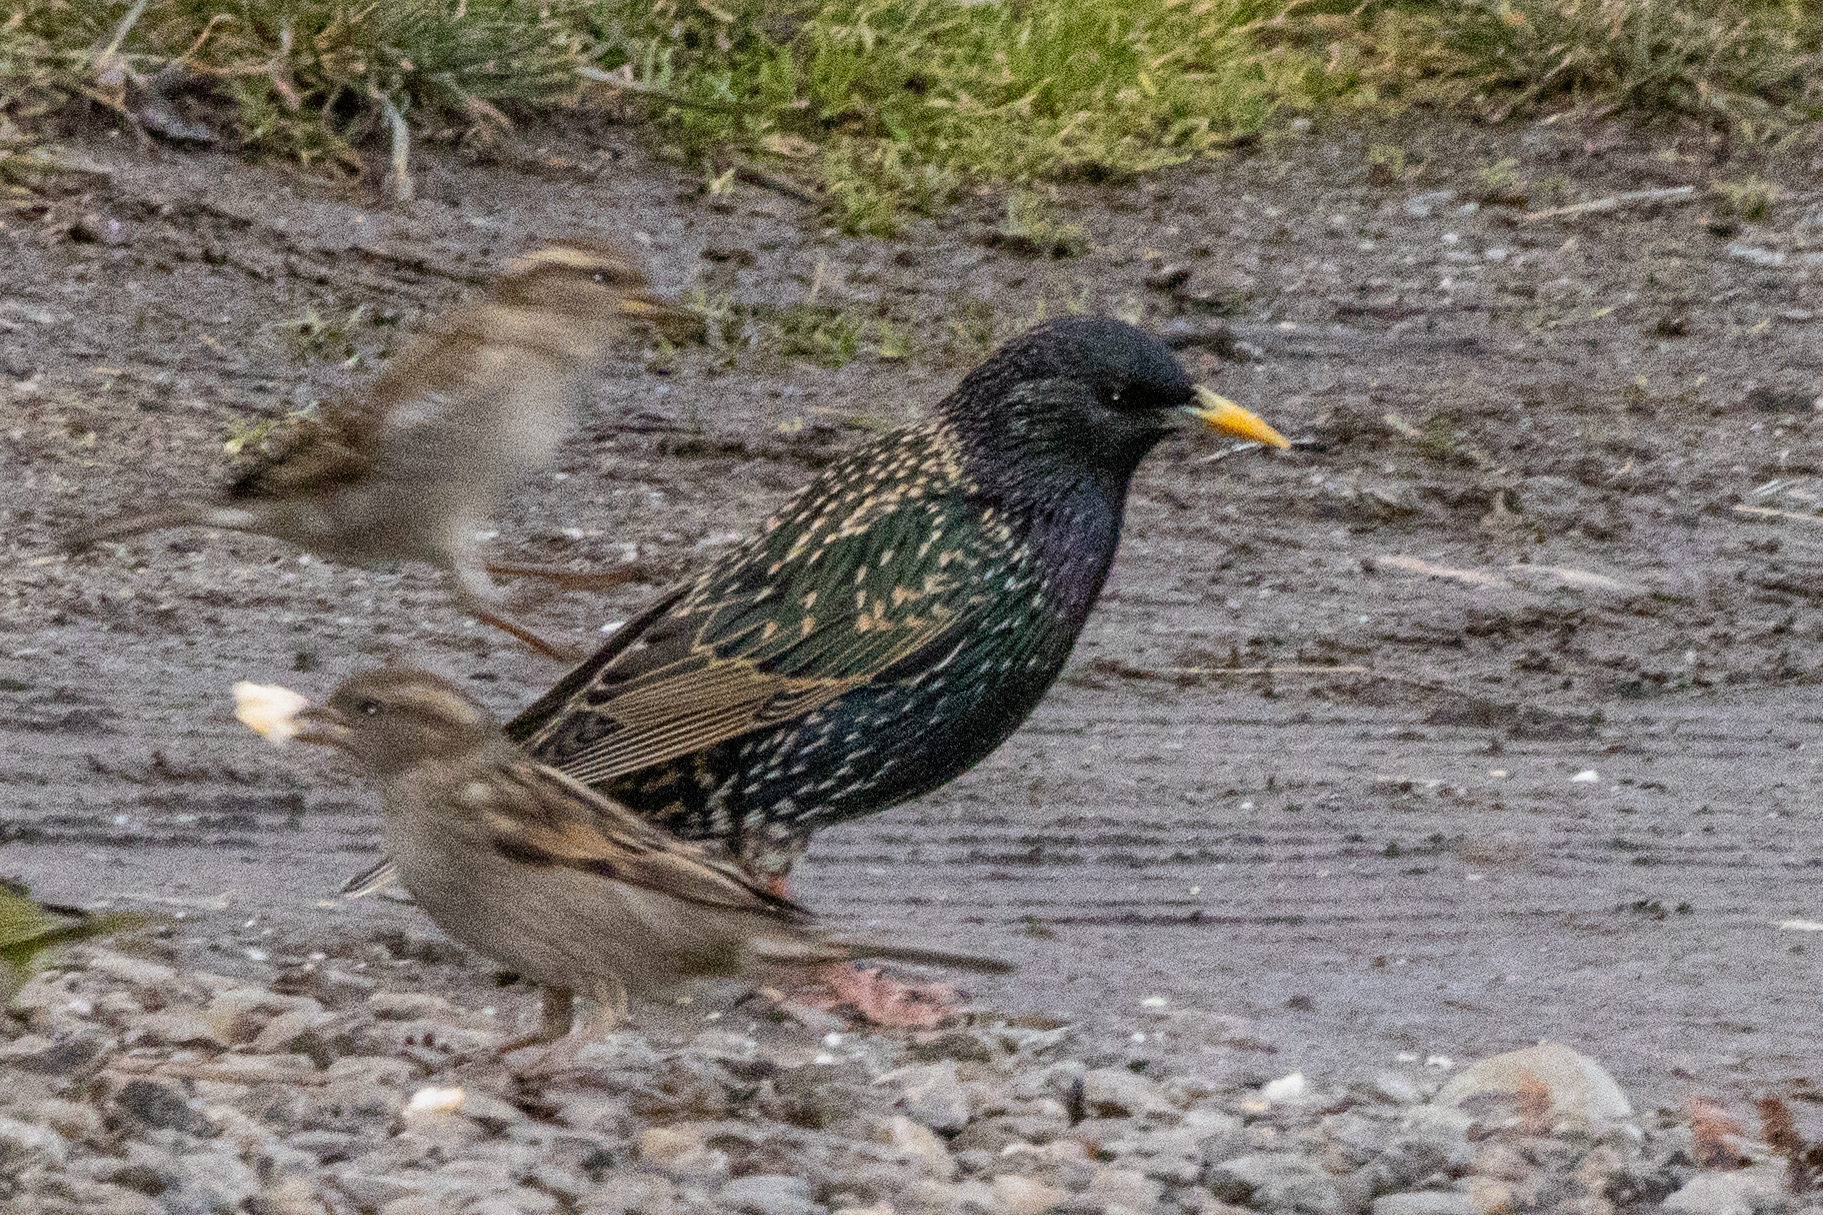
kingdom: Animalia
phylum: Chordata
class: Aves
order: Passeriformes
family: Sturnidae
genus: Sturnus
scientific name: Sturnus vulgaris
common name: Common starling
